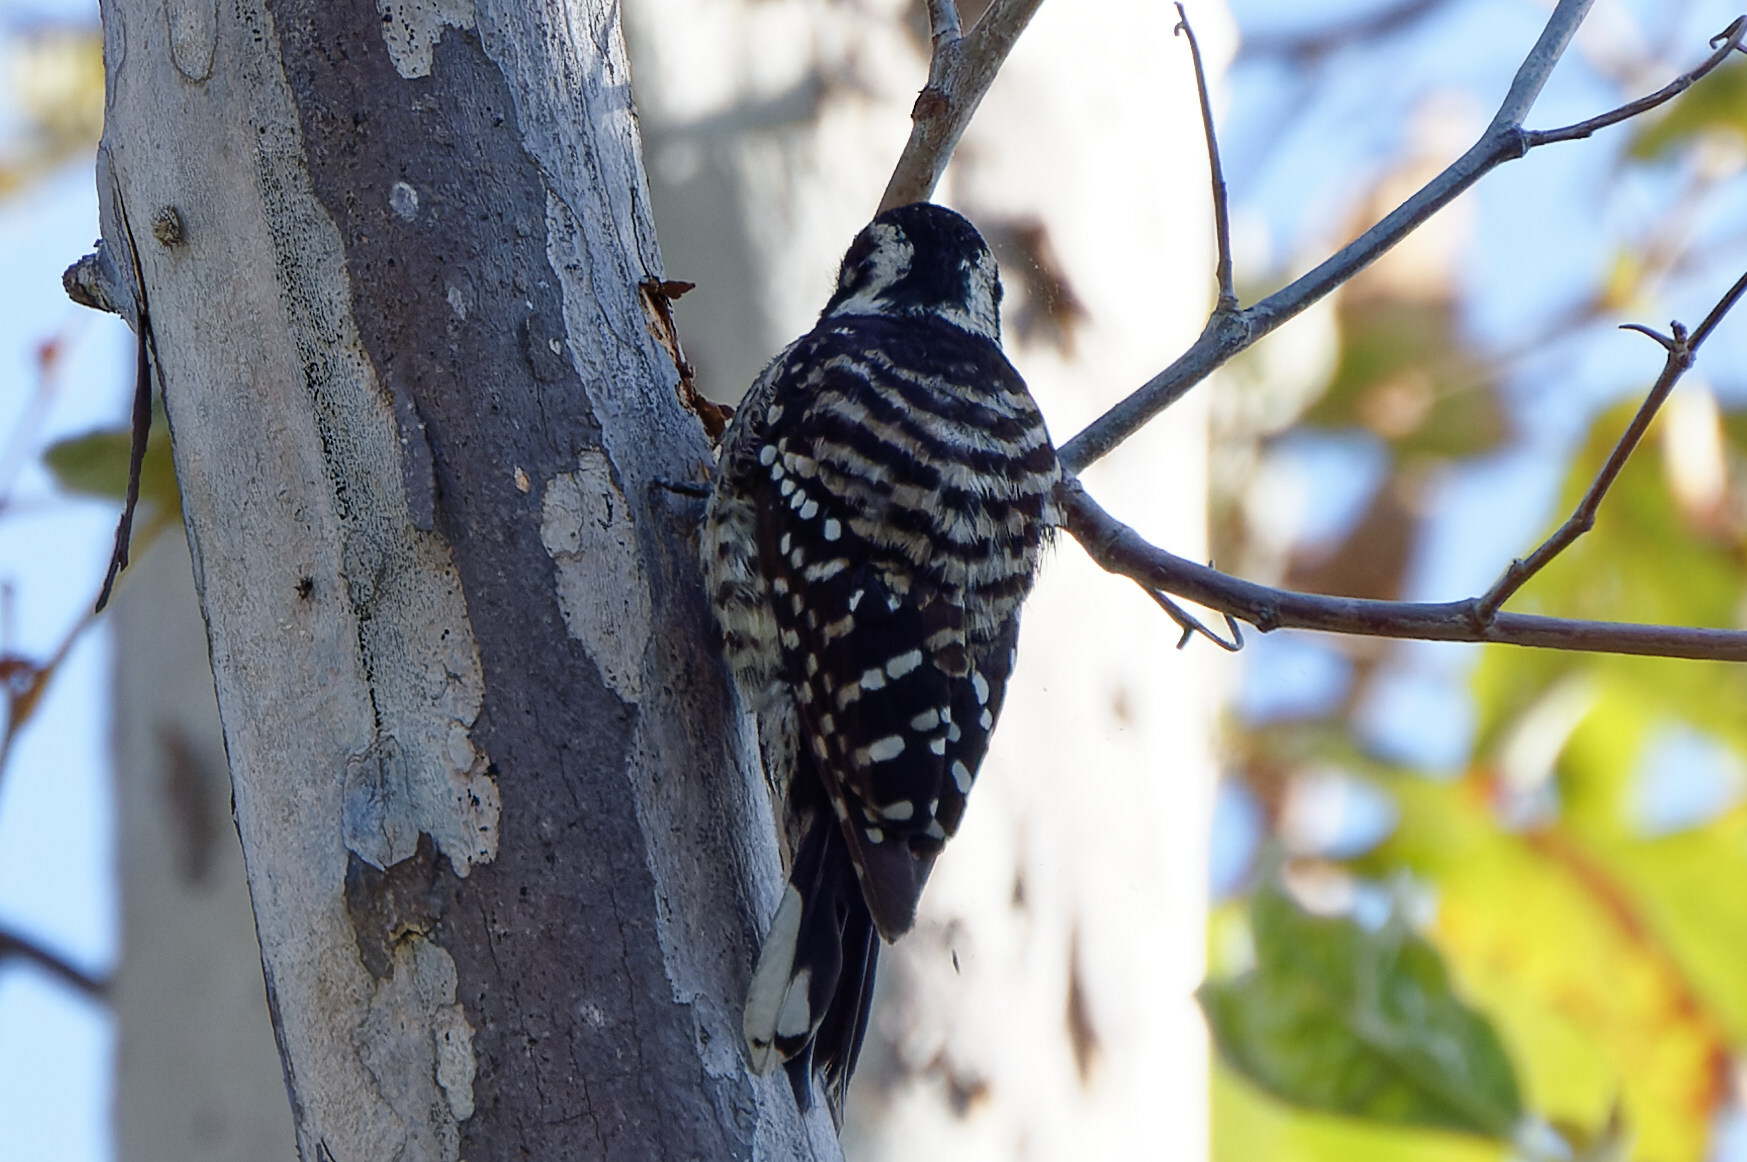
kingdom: Animalia
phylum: Chordata
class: Aves
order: Piciformes
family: Picidae
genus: Dryobates
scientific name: Dryobates nuttallii
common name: Nuttall's woodpecker
